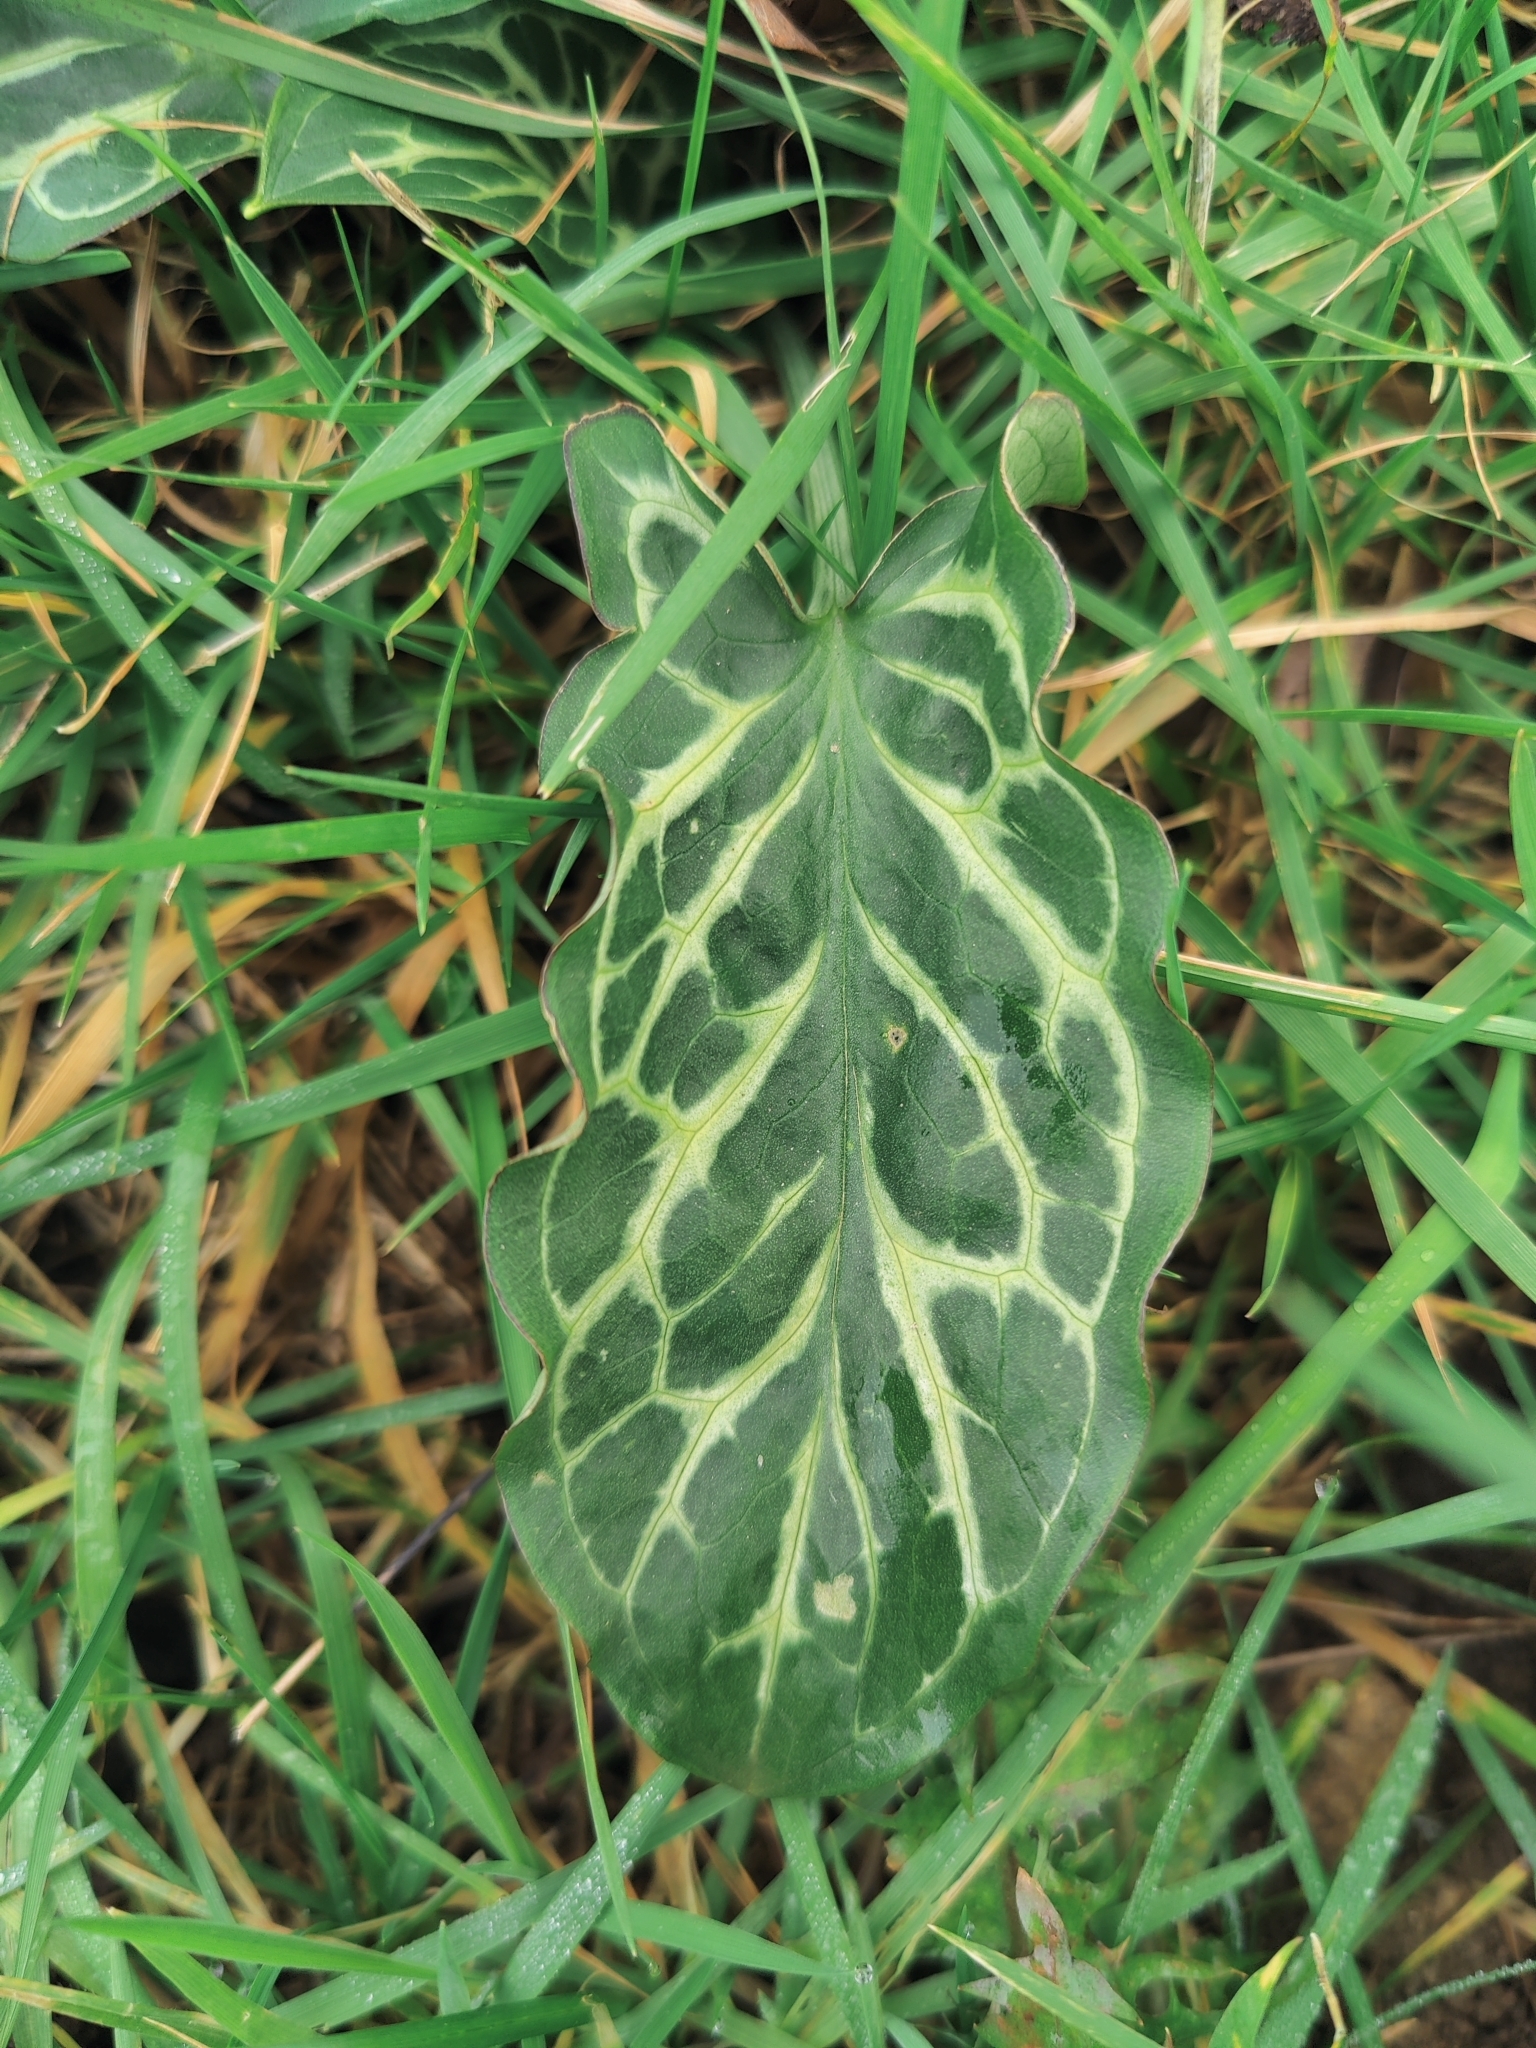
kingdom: Plantae
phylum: Tracheophyta
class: Liliopsida
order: Alismatales
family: Araceae
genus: Arum
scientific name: Arum italicum
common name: Italian lords-and-ladies
